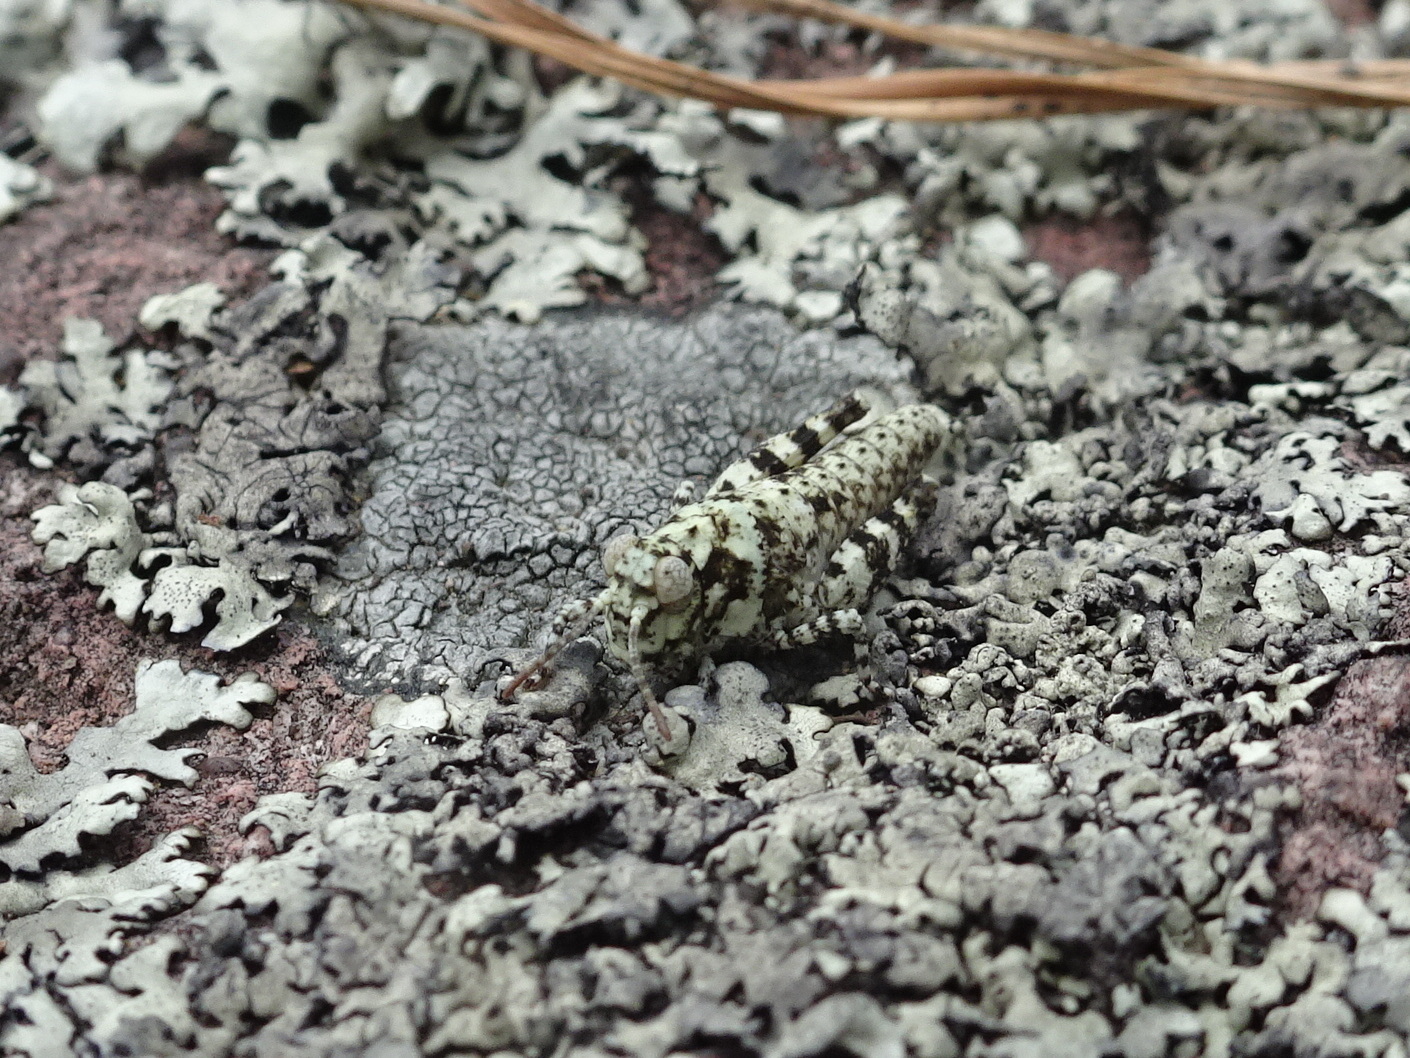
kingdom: Animalia
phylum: Arthropoda
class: Insecta
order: Orthoptera
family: Acrididae
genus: Trimerotropis
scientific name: Trimerotropis saxatilis
